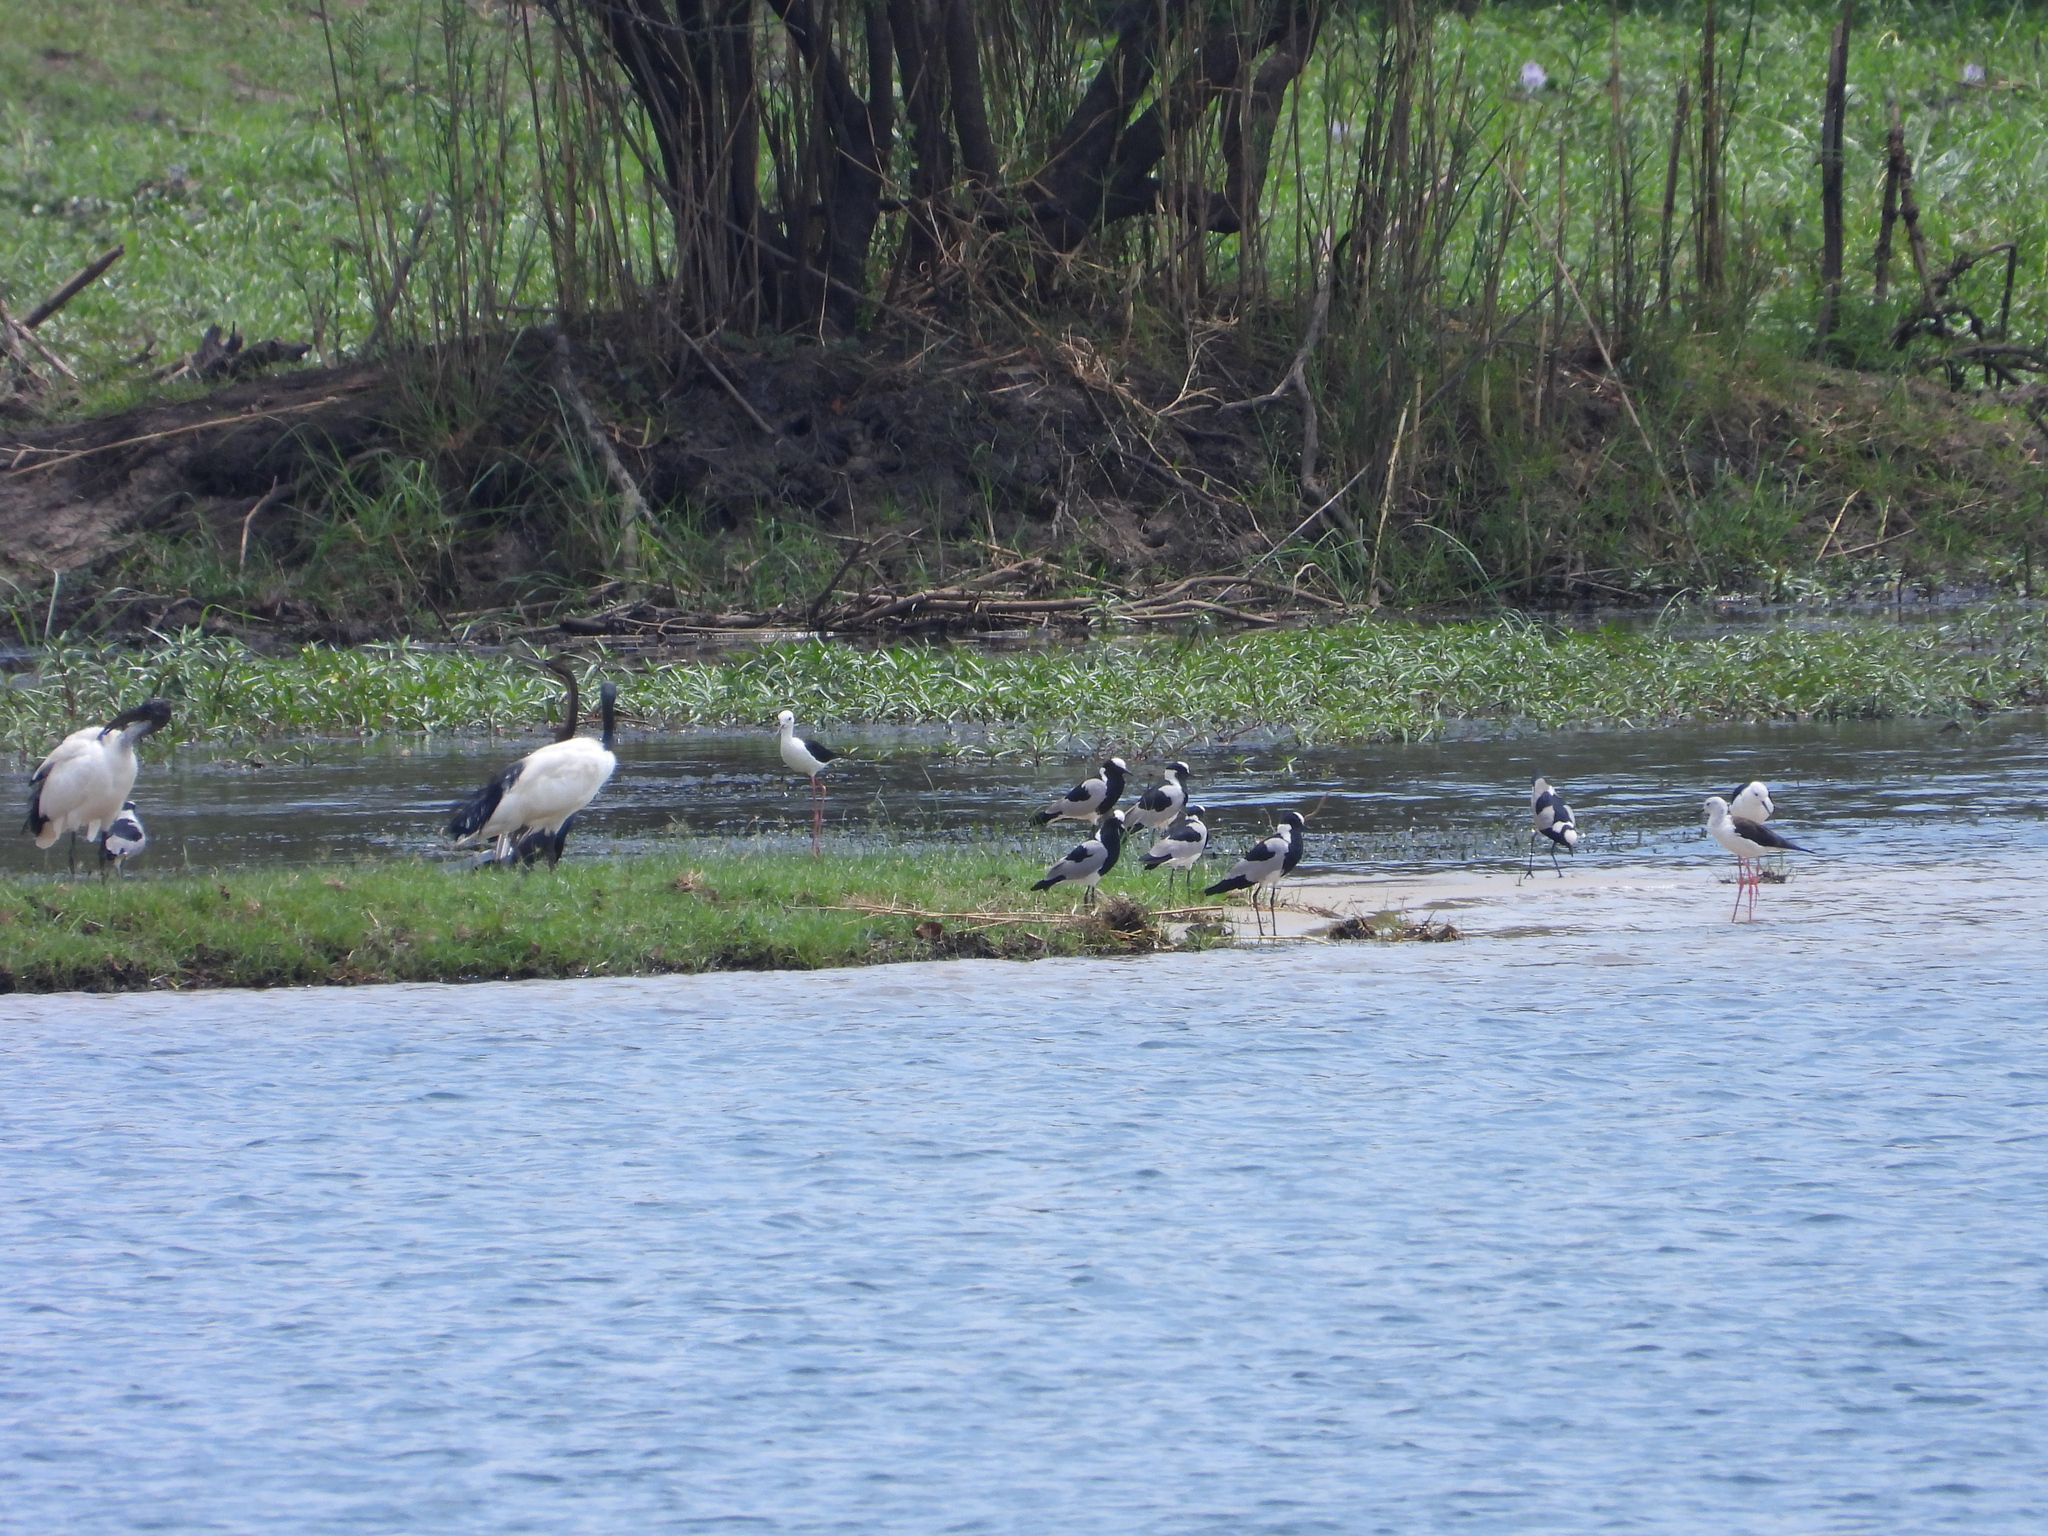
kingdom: Animalia
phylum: Chordata
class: Aves
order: Charadriiformes
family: Charadriidae
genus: Vanellus
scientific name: Vanellus armatus
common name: Blacksmith lapwing
